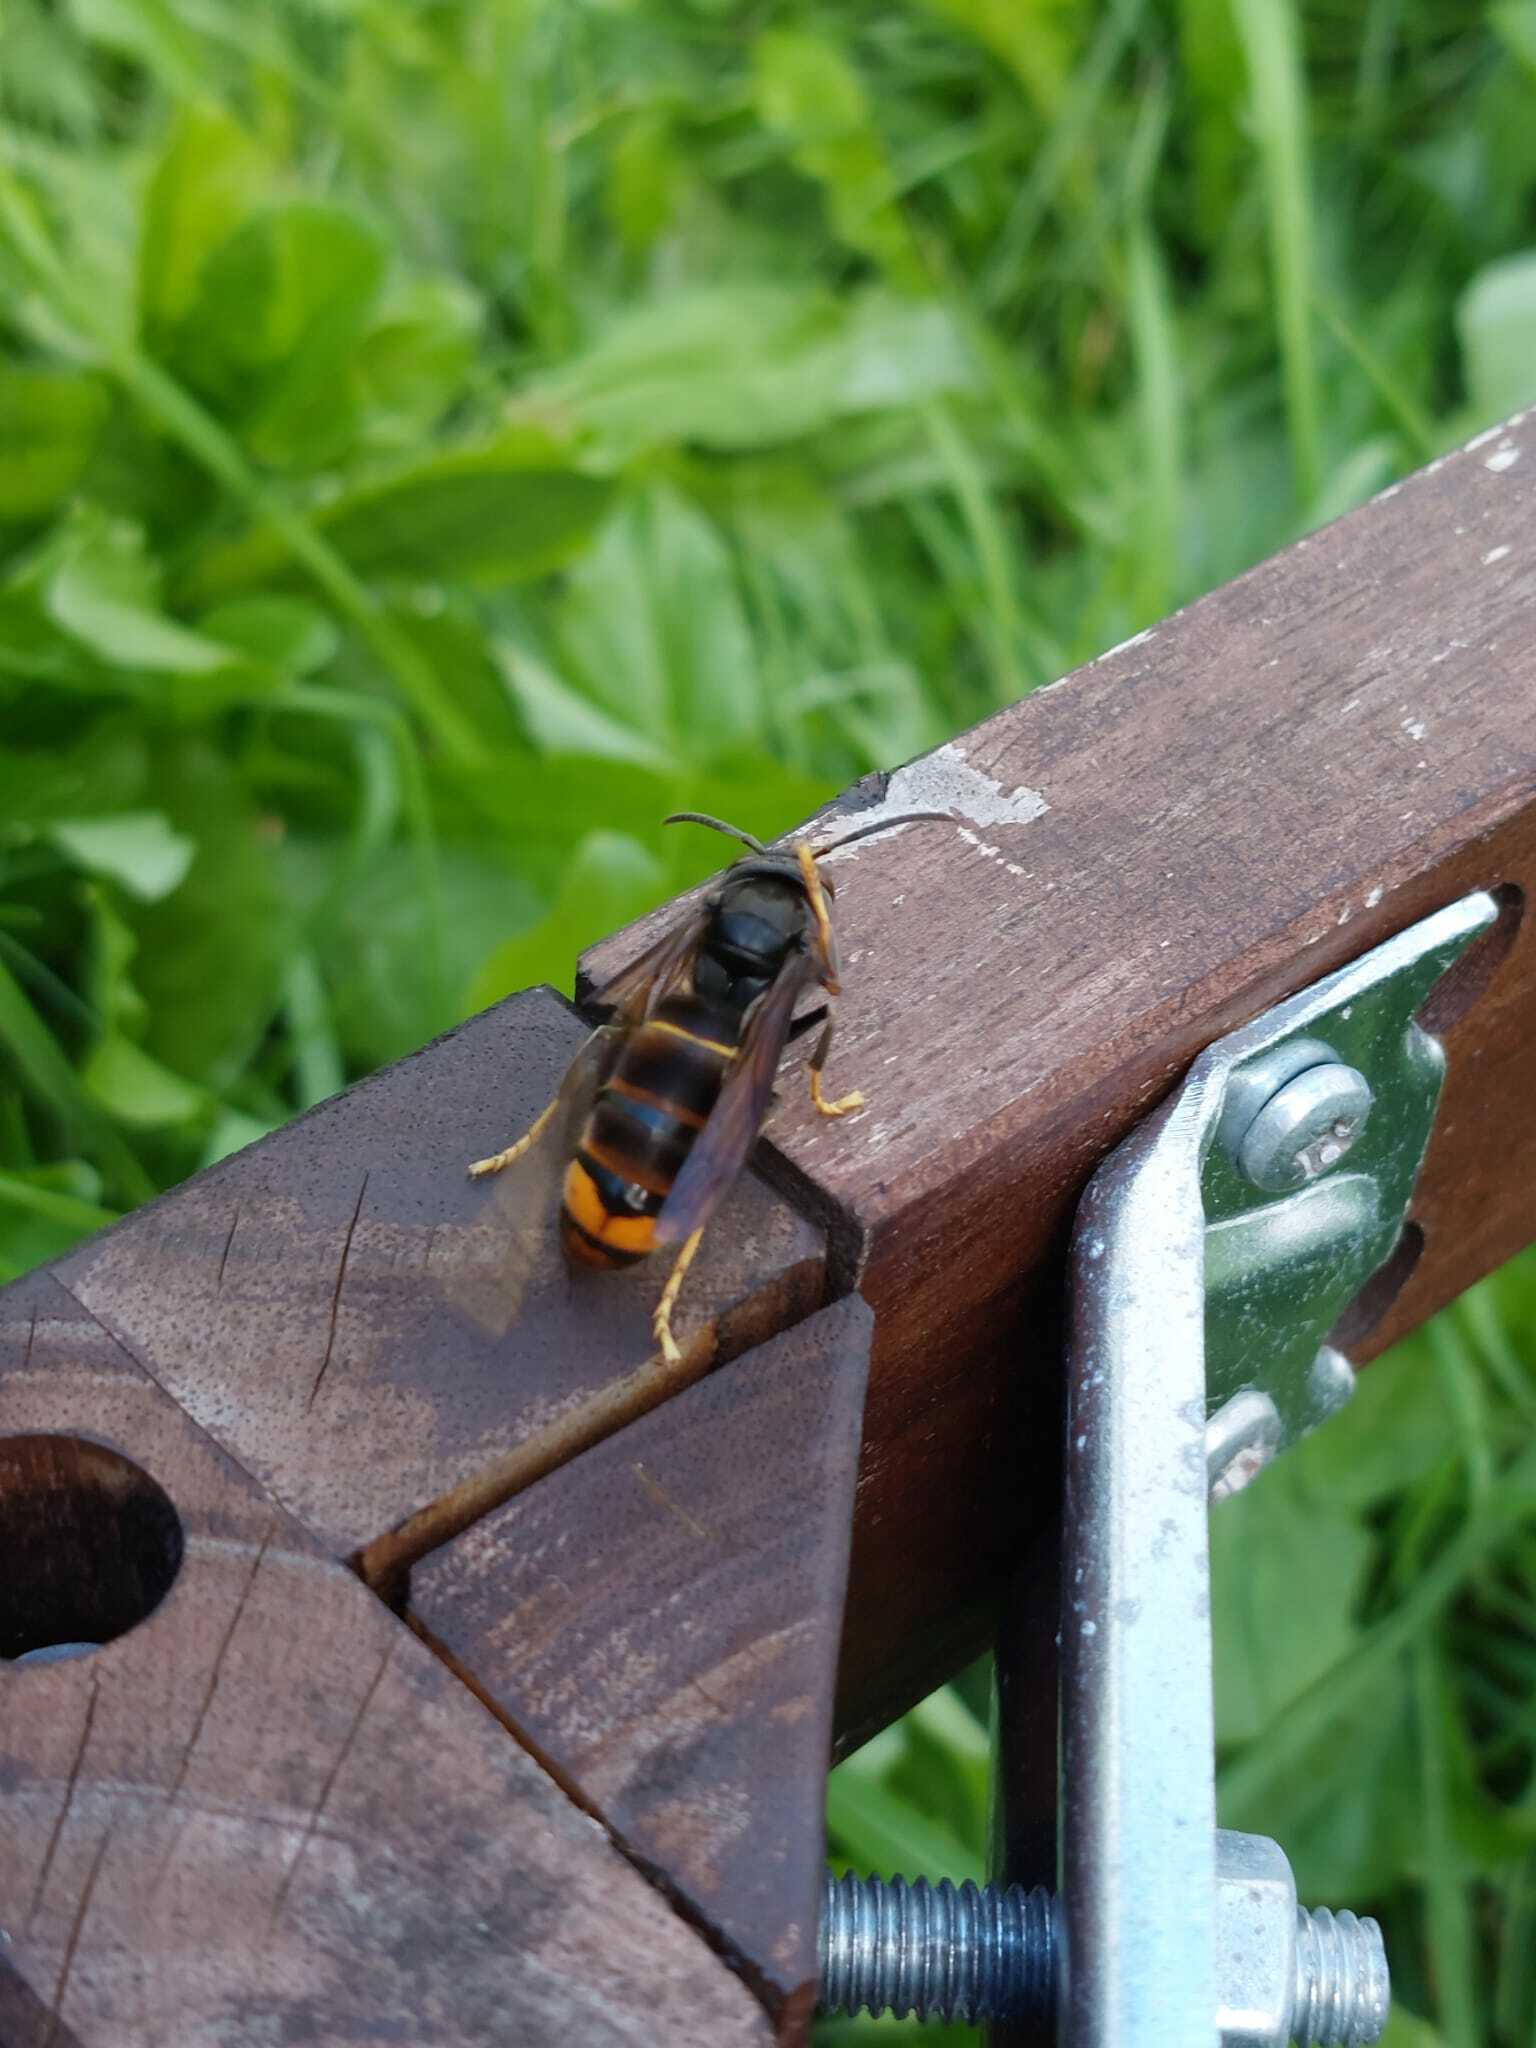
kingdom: Animalia
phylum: Arthropoda
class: Insecta
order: Hymenoptera
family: Vespidae
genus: Vespa
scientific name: Vespa velutina
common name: Asian hornet
